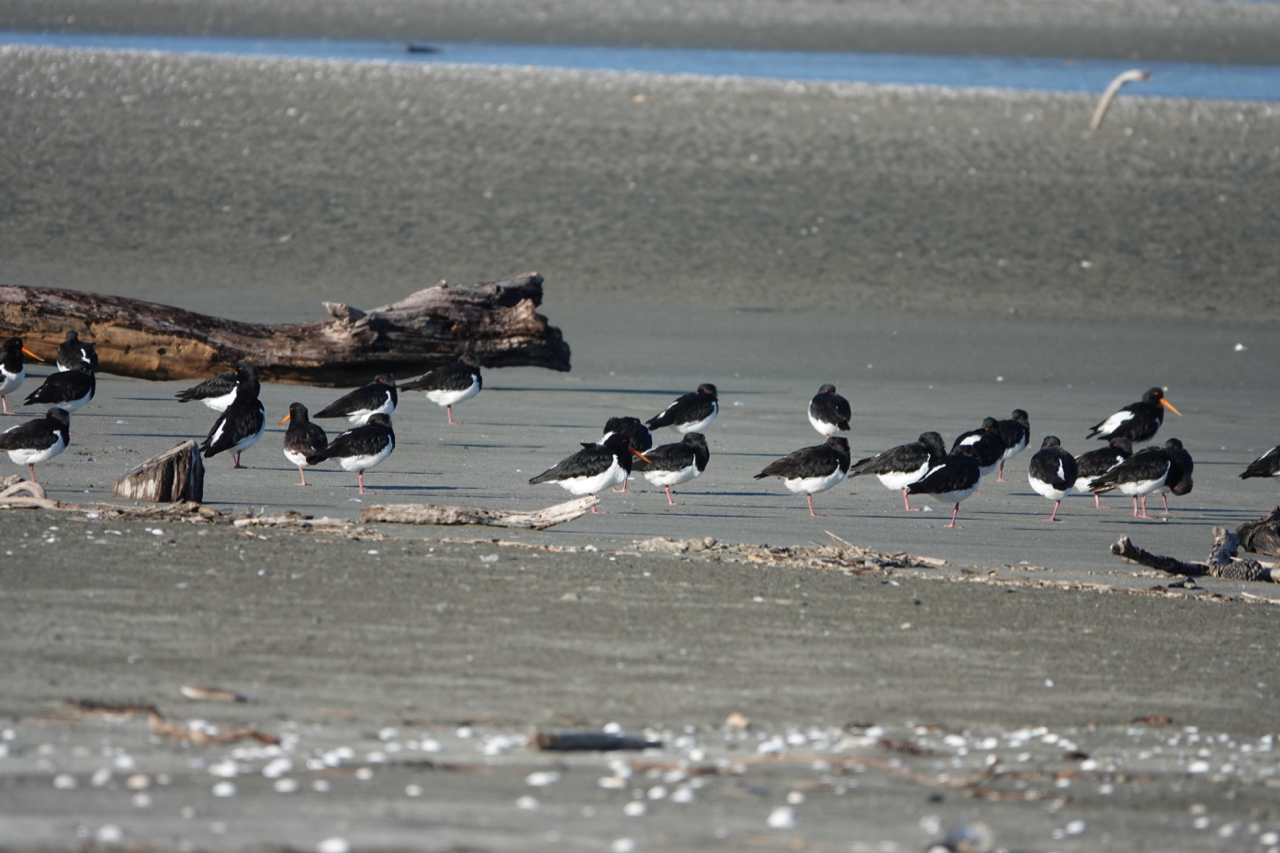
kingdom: Animalia
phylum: Chordata
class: Aves
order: Charadriiformes
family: Haematopodidae
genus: Haematopus
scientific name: Haematopus finschi
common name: South island oystercatcher
